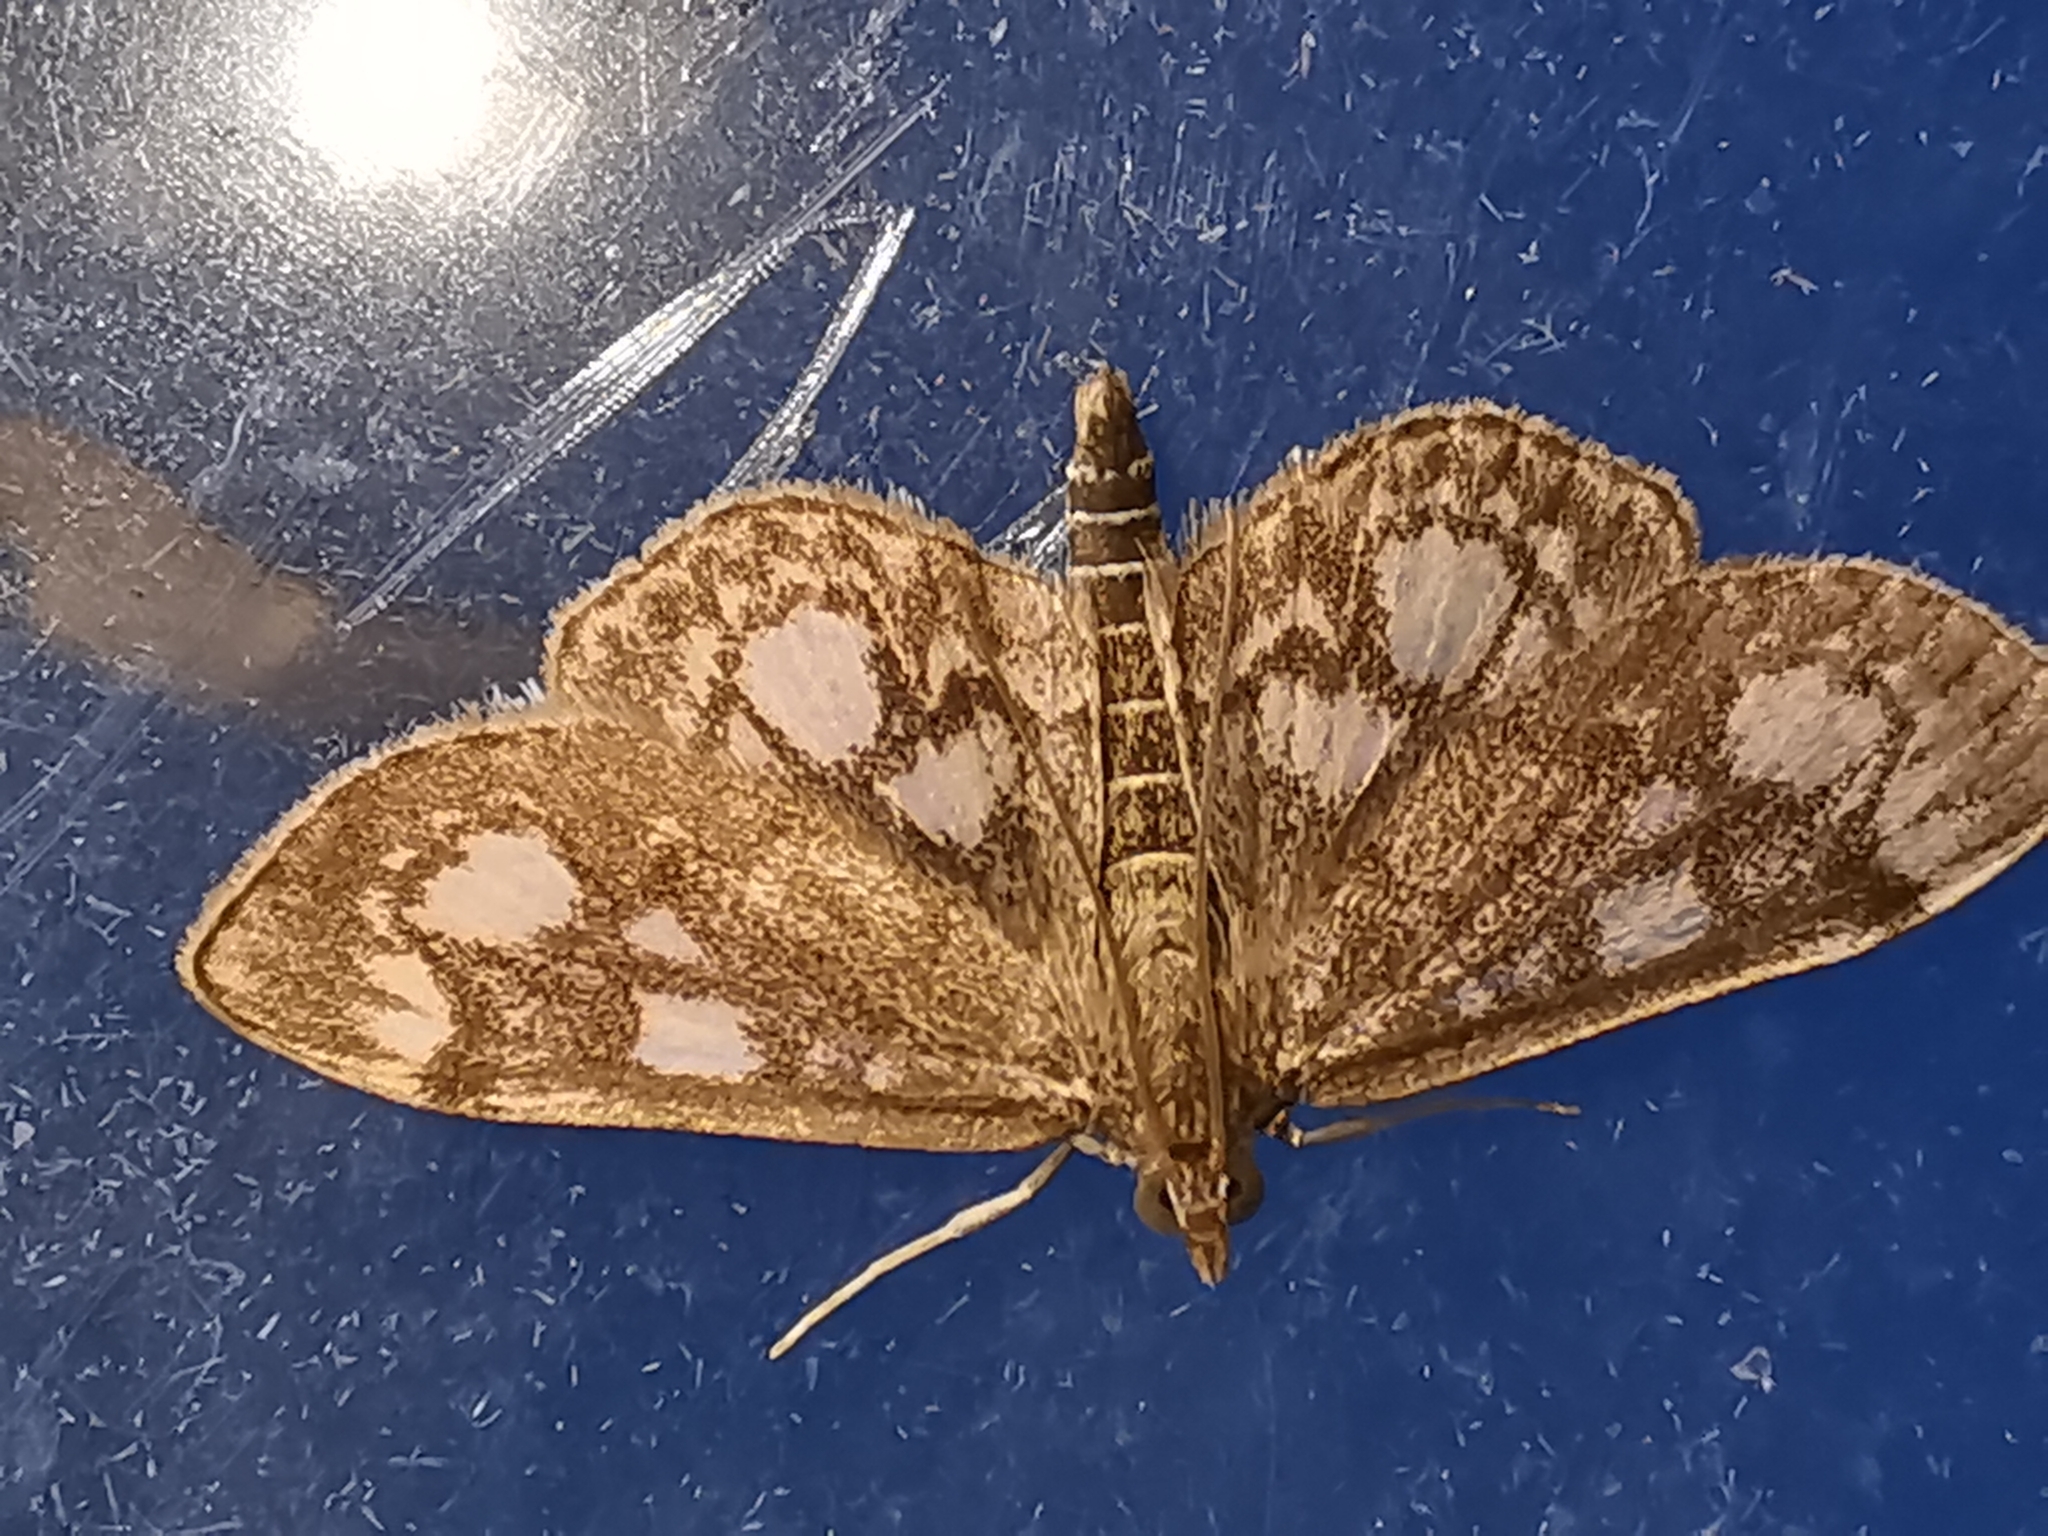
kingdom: Animalia
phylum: Arthropoda
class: Insecta
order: Lepidoptera
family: Crambidae
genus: Anania
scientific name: Anania coronata
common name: Elder pearl
